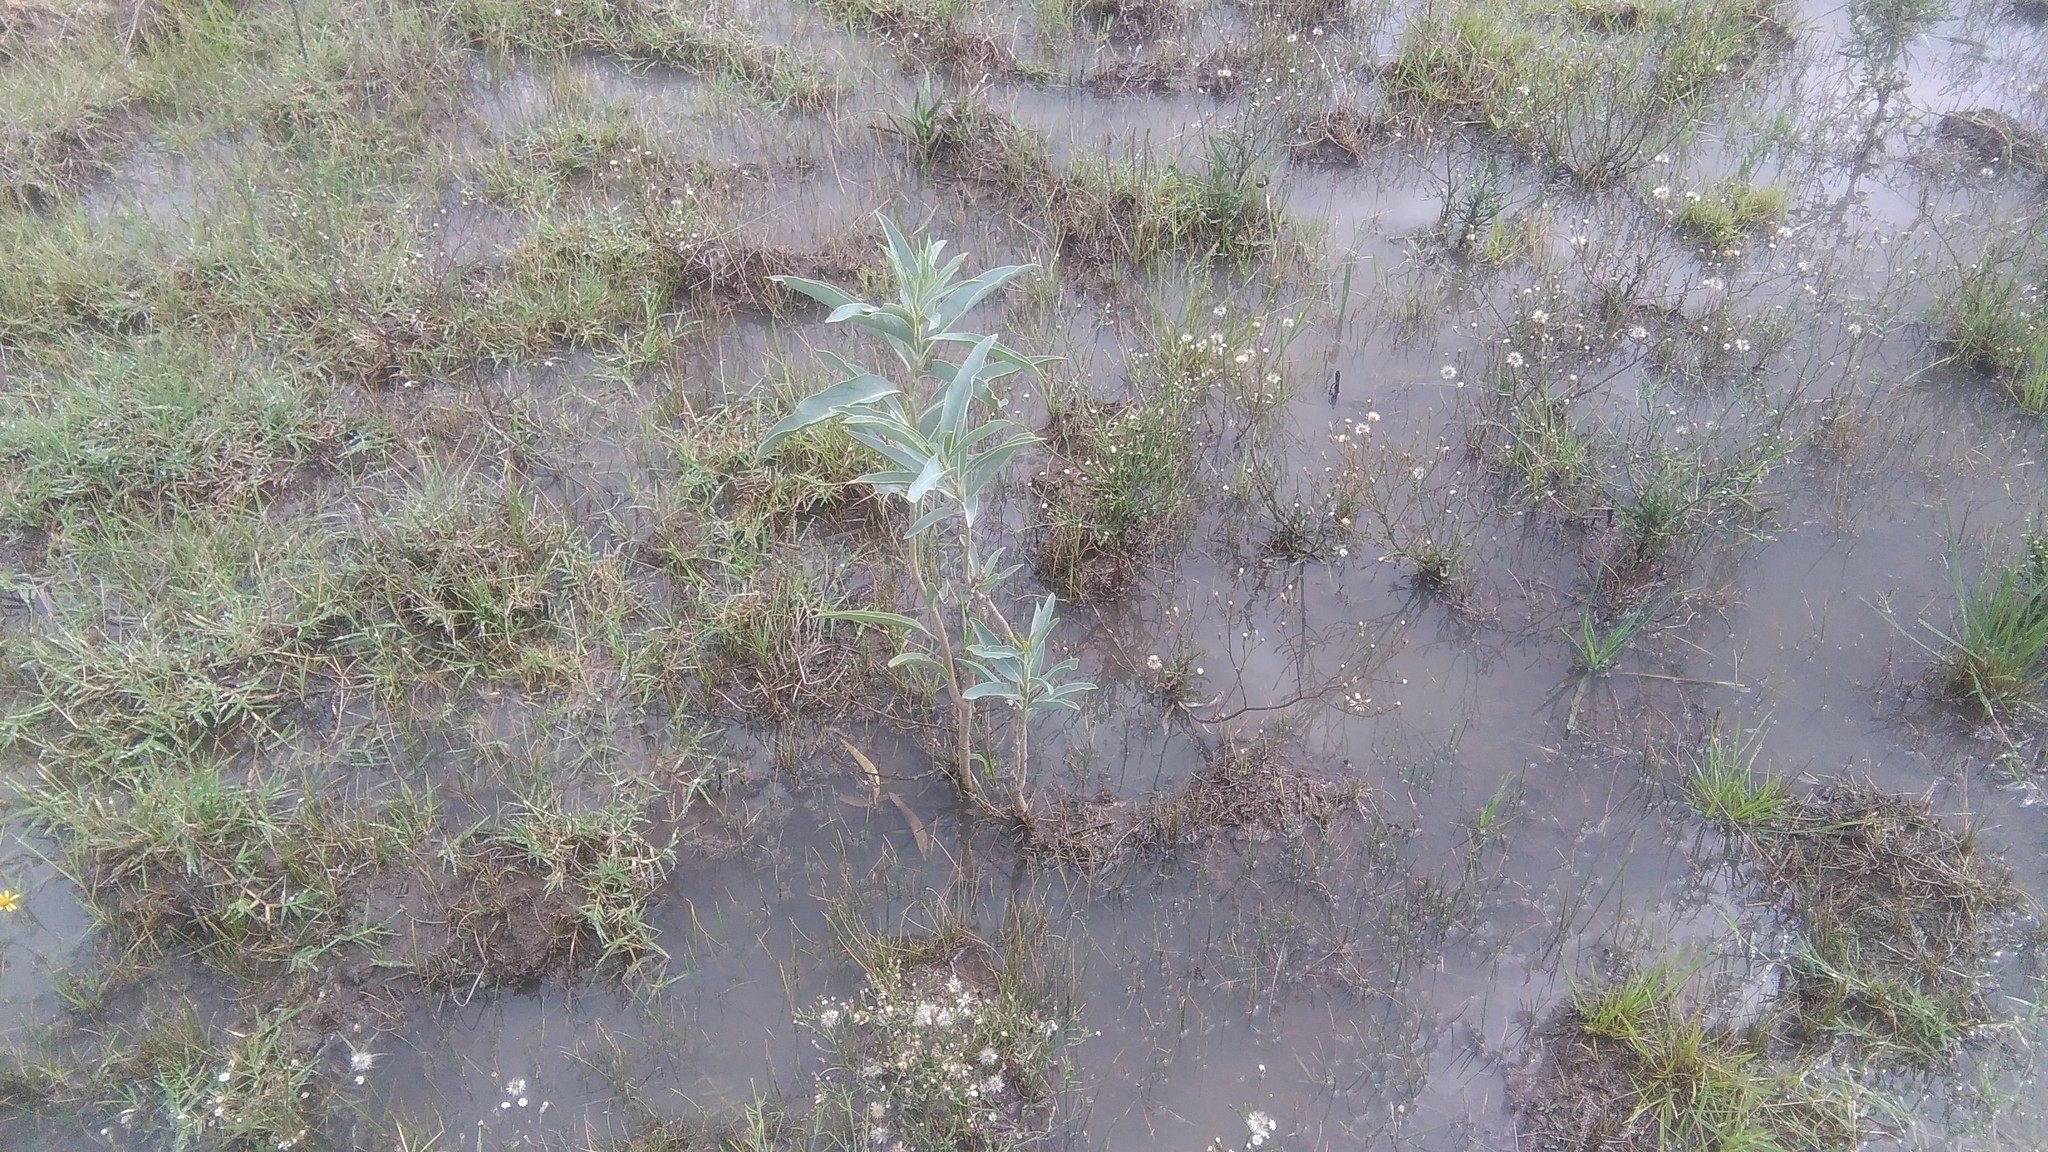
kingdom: Plantae
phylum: Tracheophyta
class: Magnoliopsida
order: Solanales
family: Solanaceae
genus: Solanum
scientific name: Solanum glaucophyllum
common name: Waxyleaf nightshade
